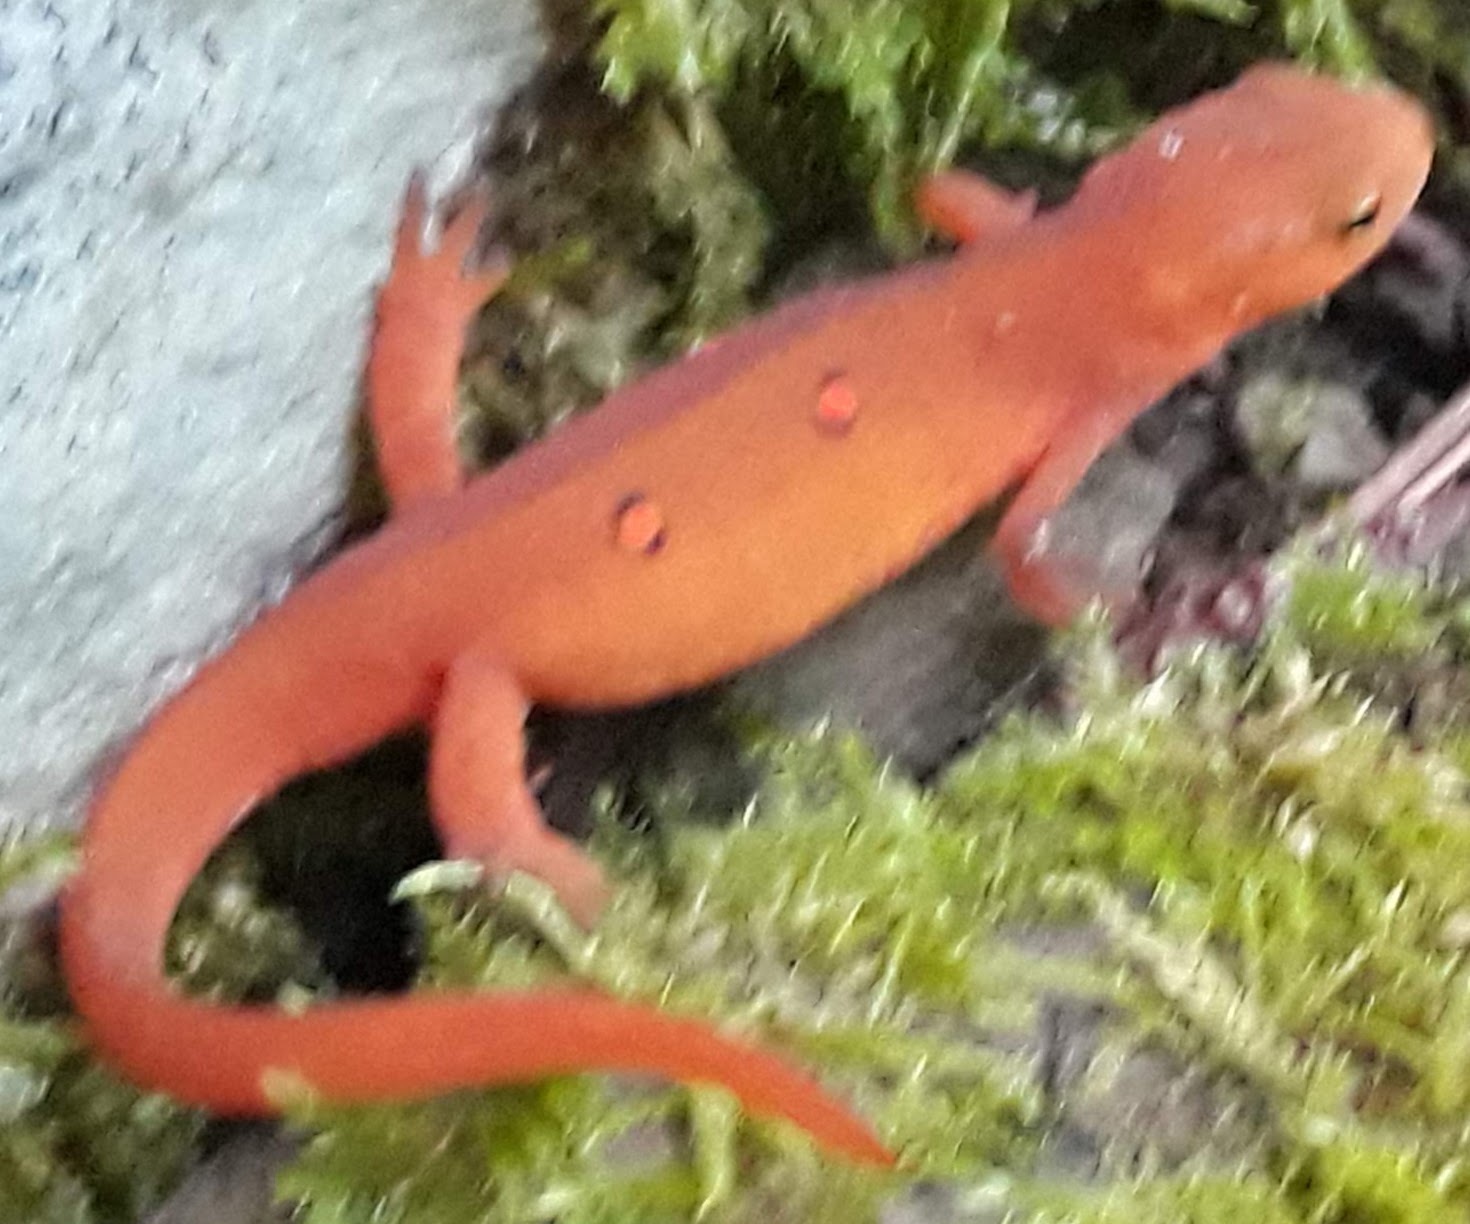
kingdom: Animalia
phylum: Chordata
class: Amphibia
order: Caudata
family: Salamandridae
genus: Notophthalmus
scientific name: Notophthalmus viridescens
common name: Eastern newt
